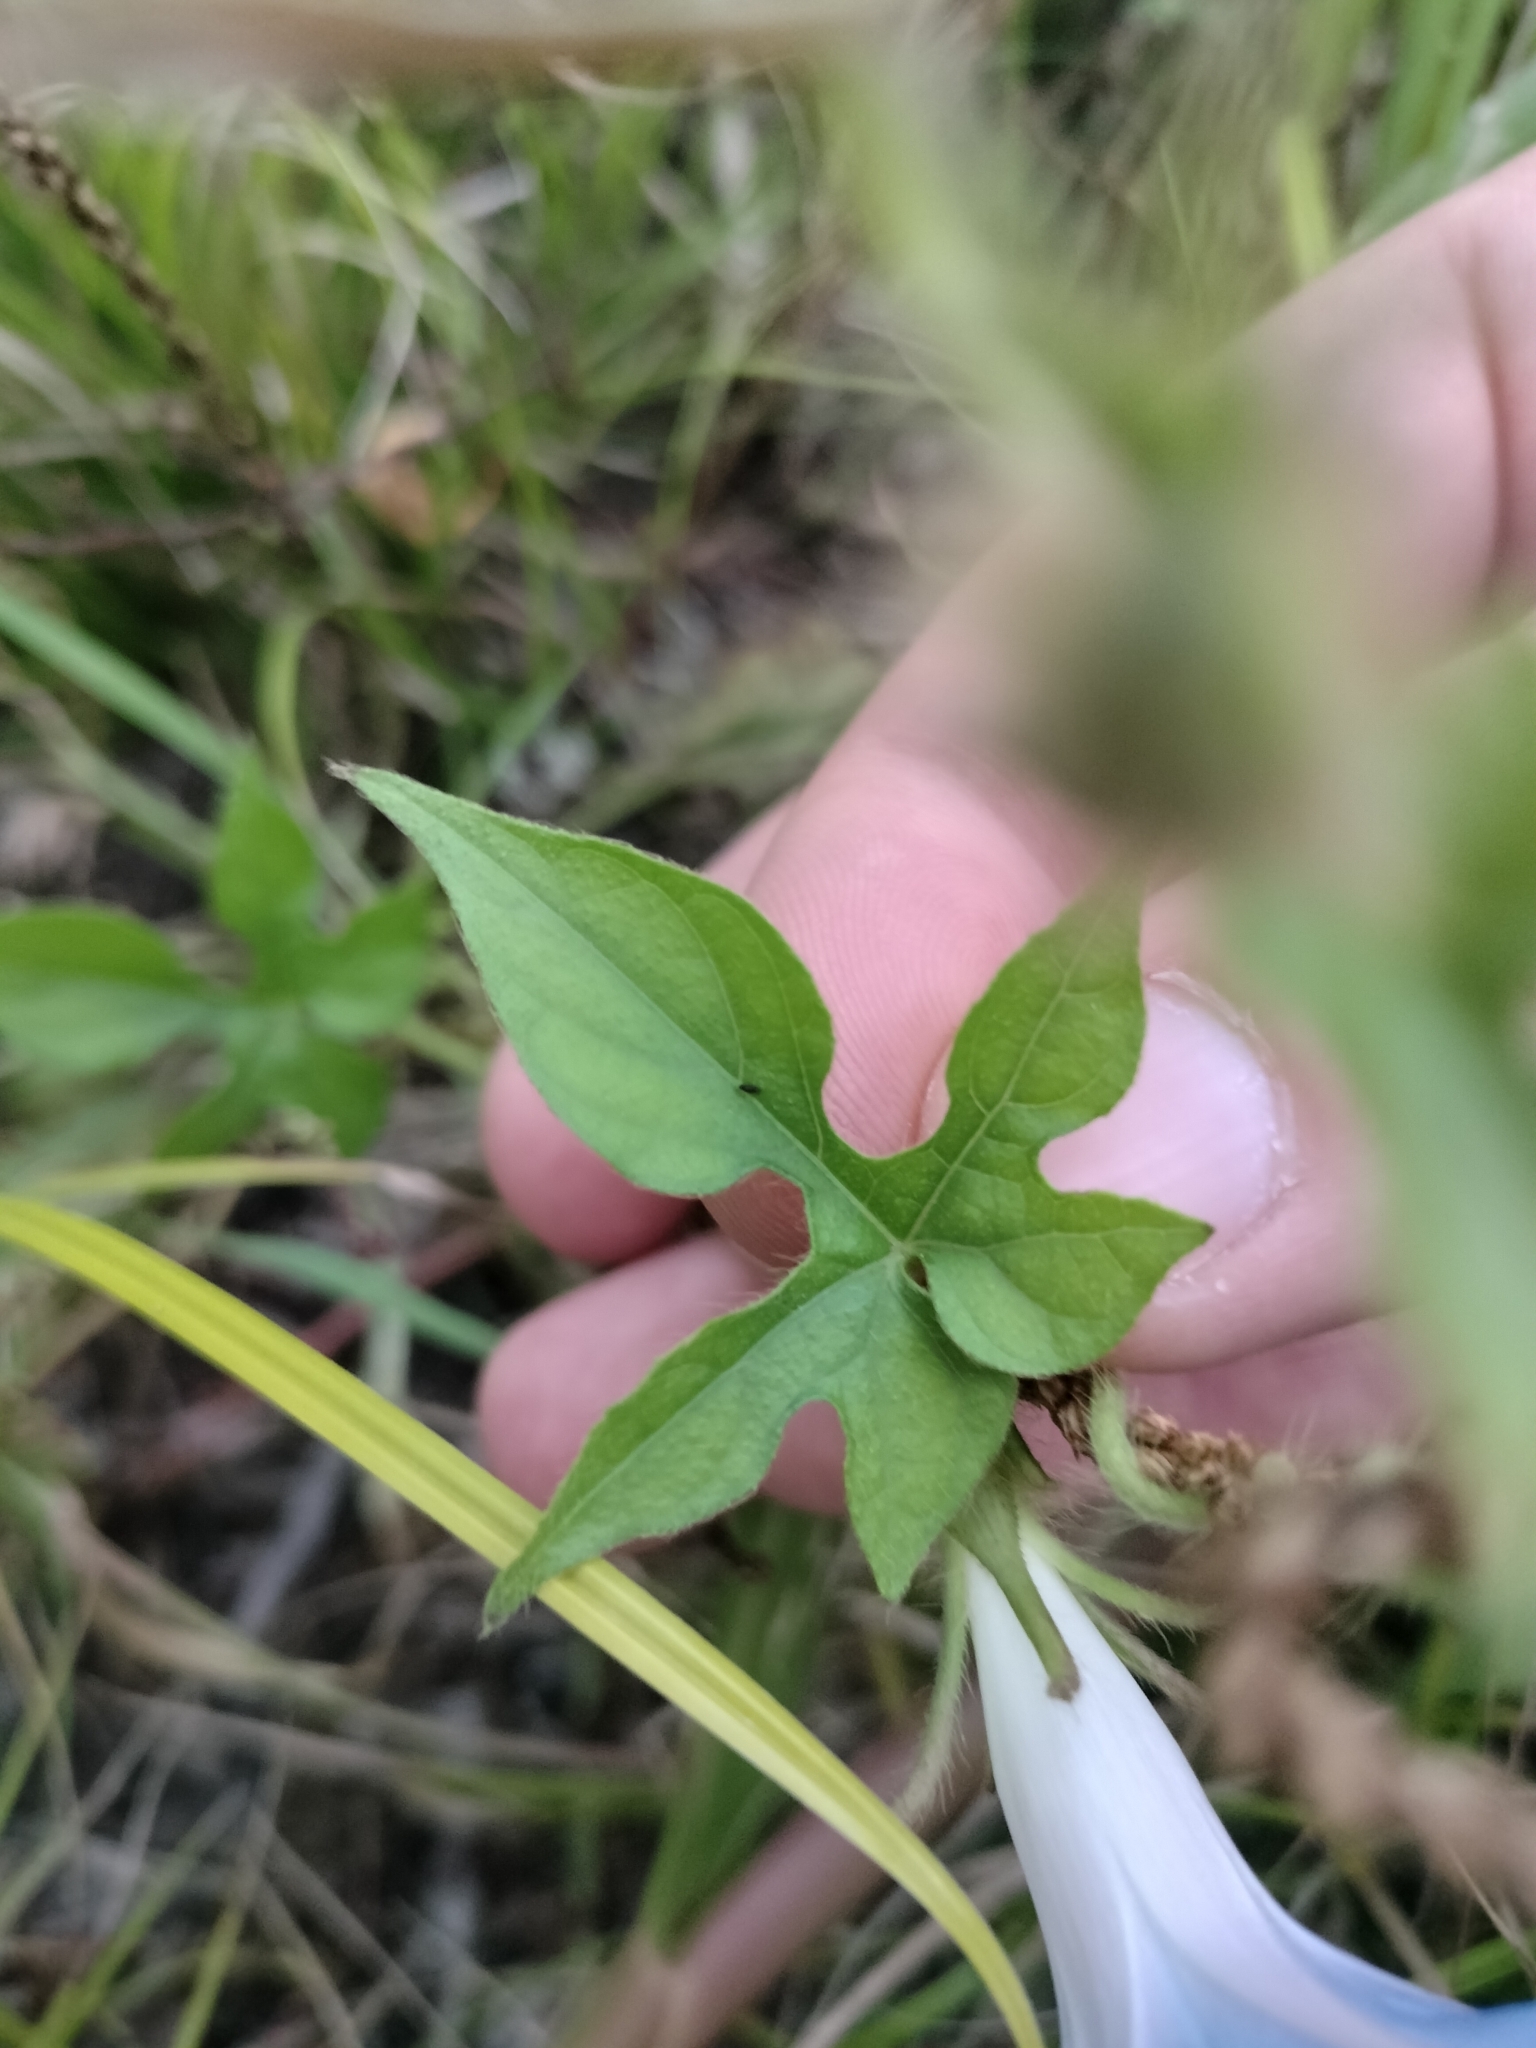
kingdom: Plantae
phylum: Tracheophyta
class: Magnoliopsida
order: Solanales
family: Convolvulaceae
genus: Ipomoea
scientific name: Ipomoea hederacea
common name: Ivy-leaved morning-glory
